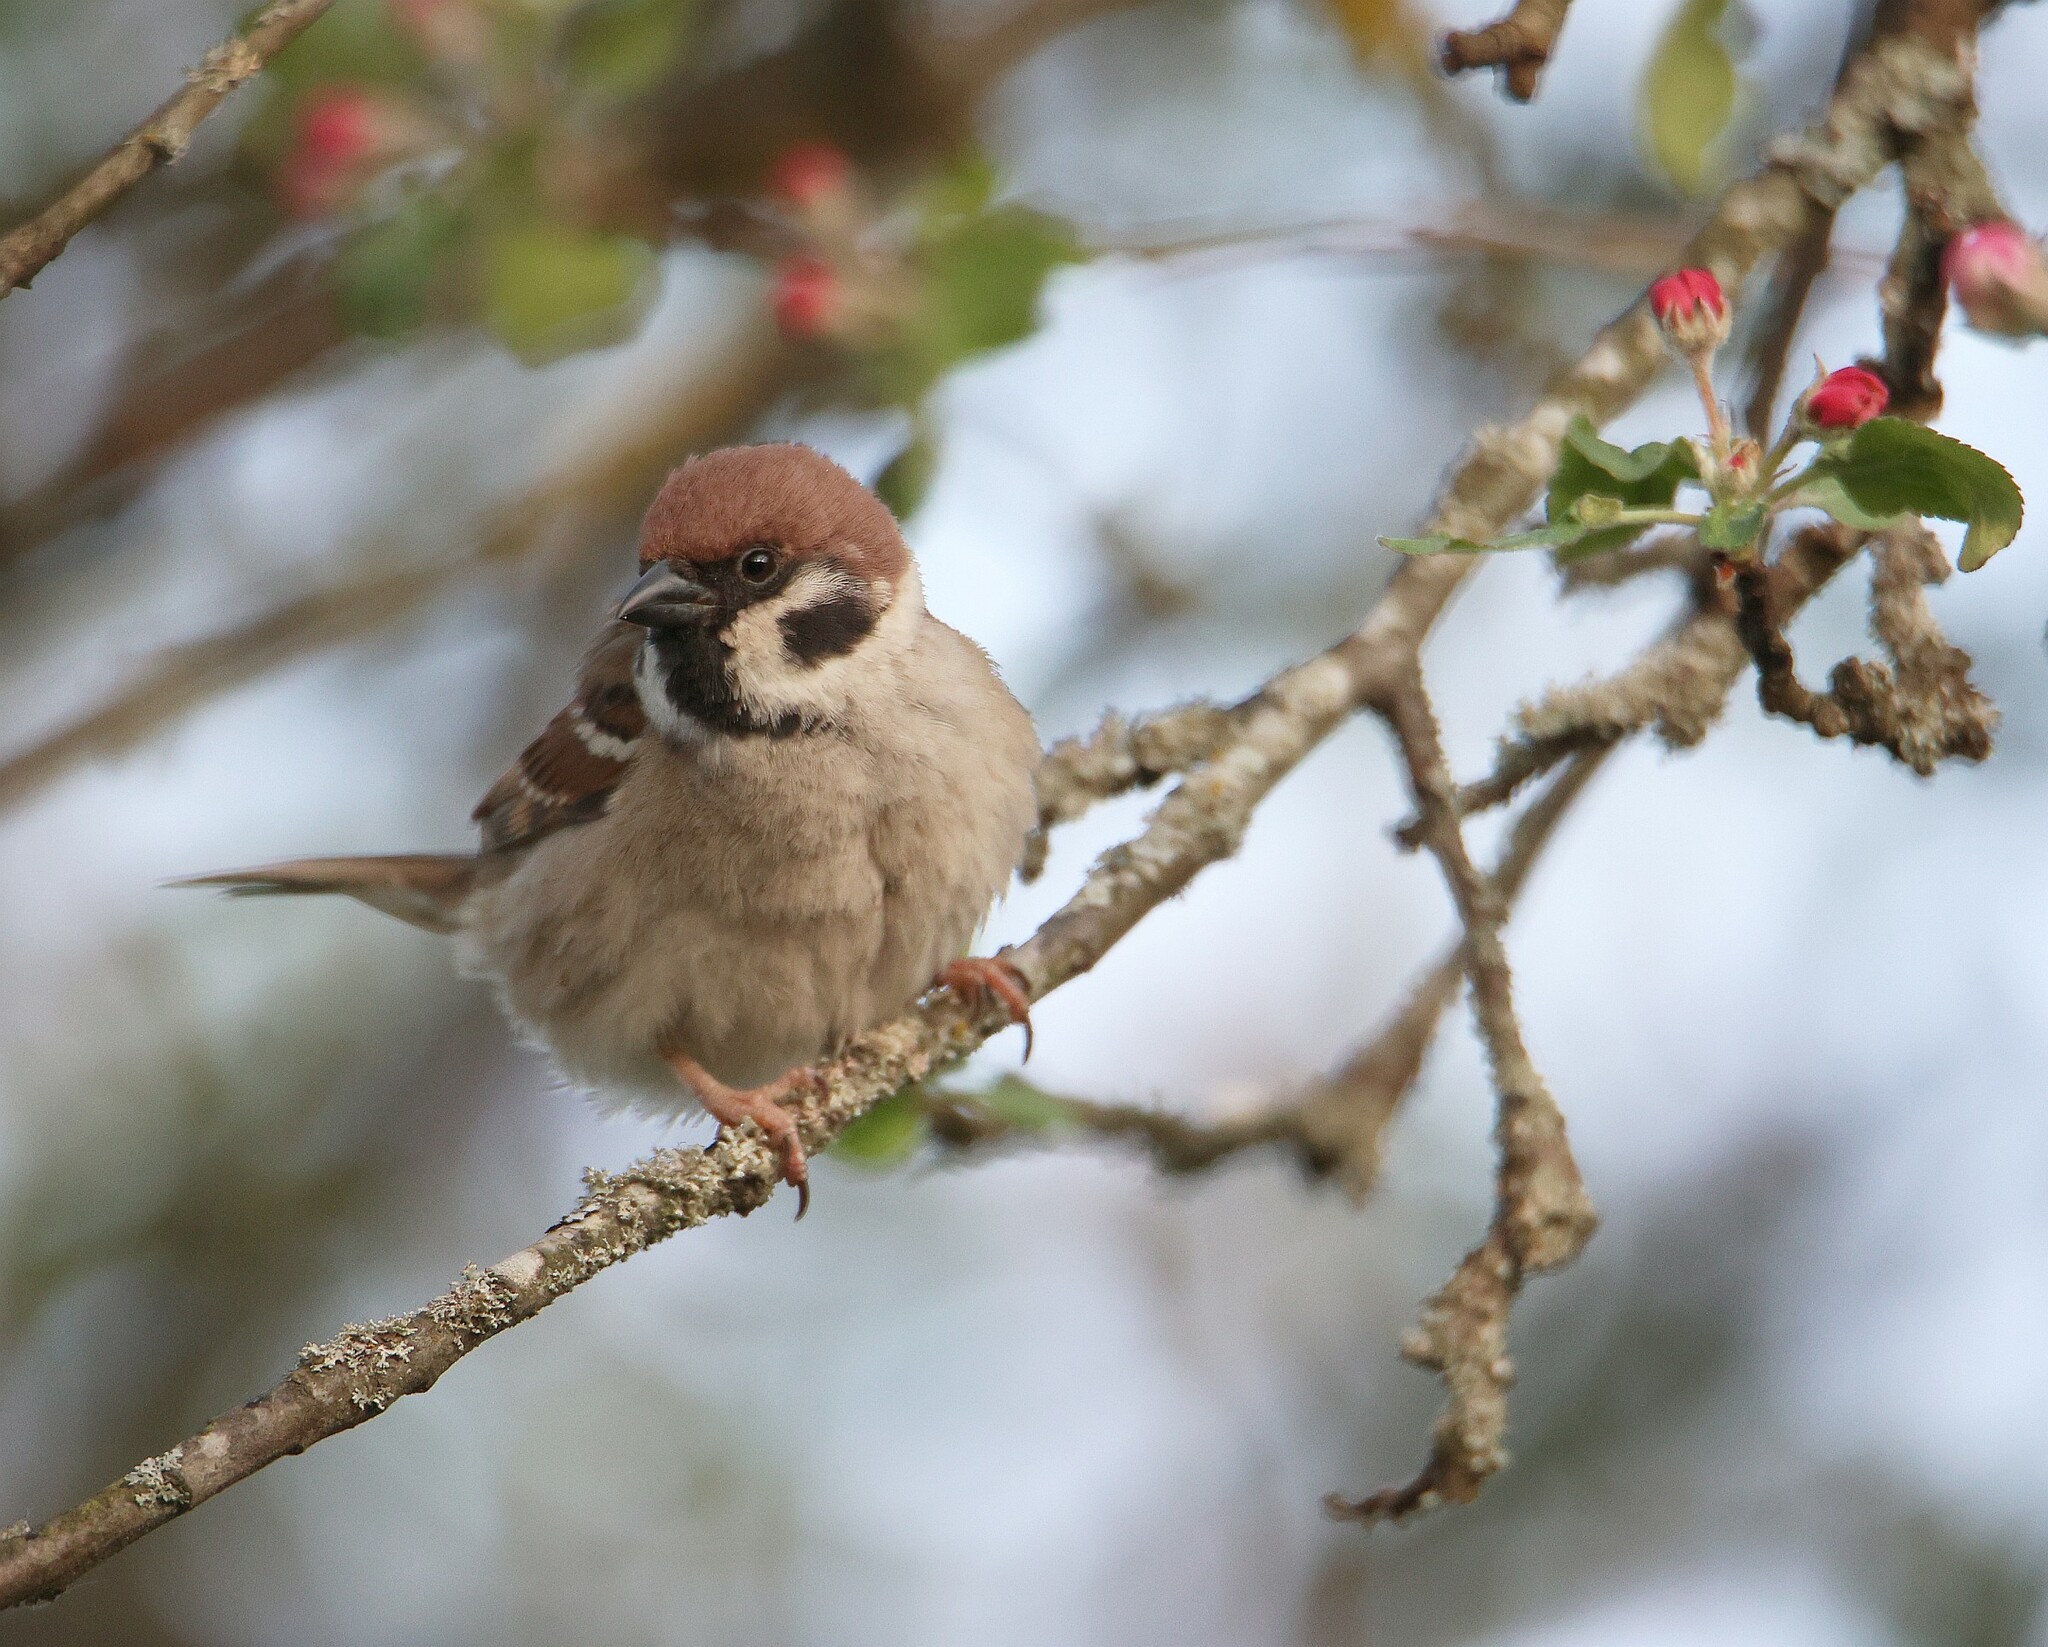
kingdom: Animalia
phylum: Chordata
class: Aves
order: Passeriformes
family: Passeridae
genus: Passer
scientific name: Passer montanus
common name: Eurasian tree sparrow
